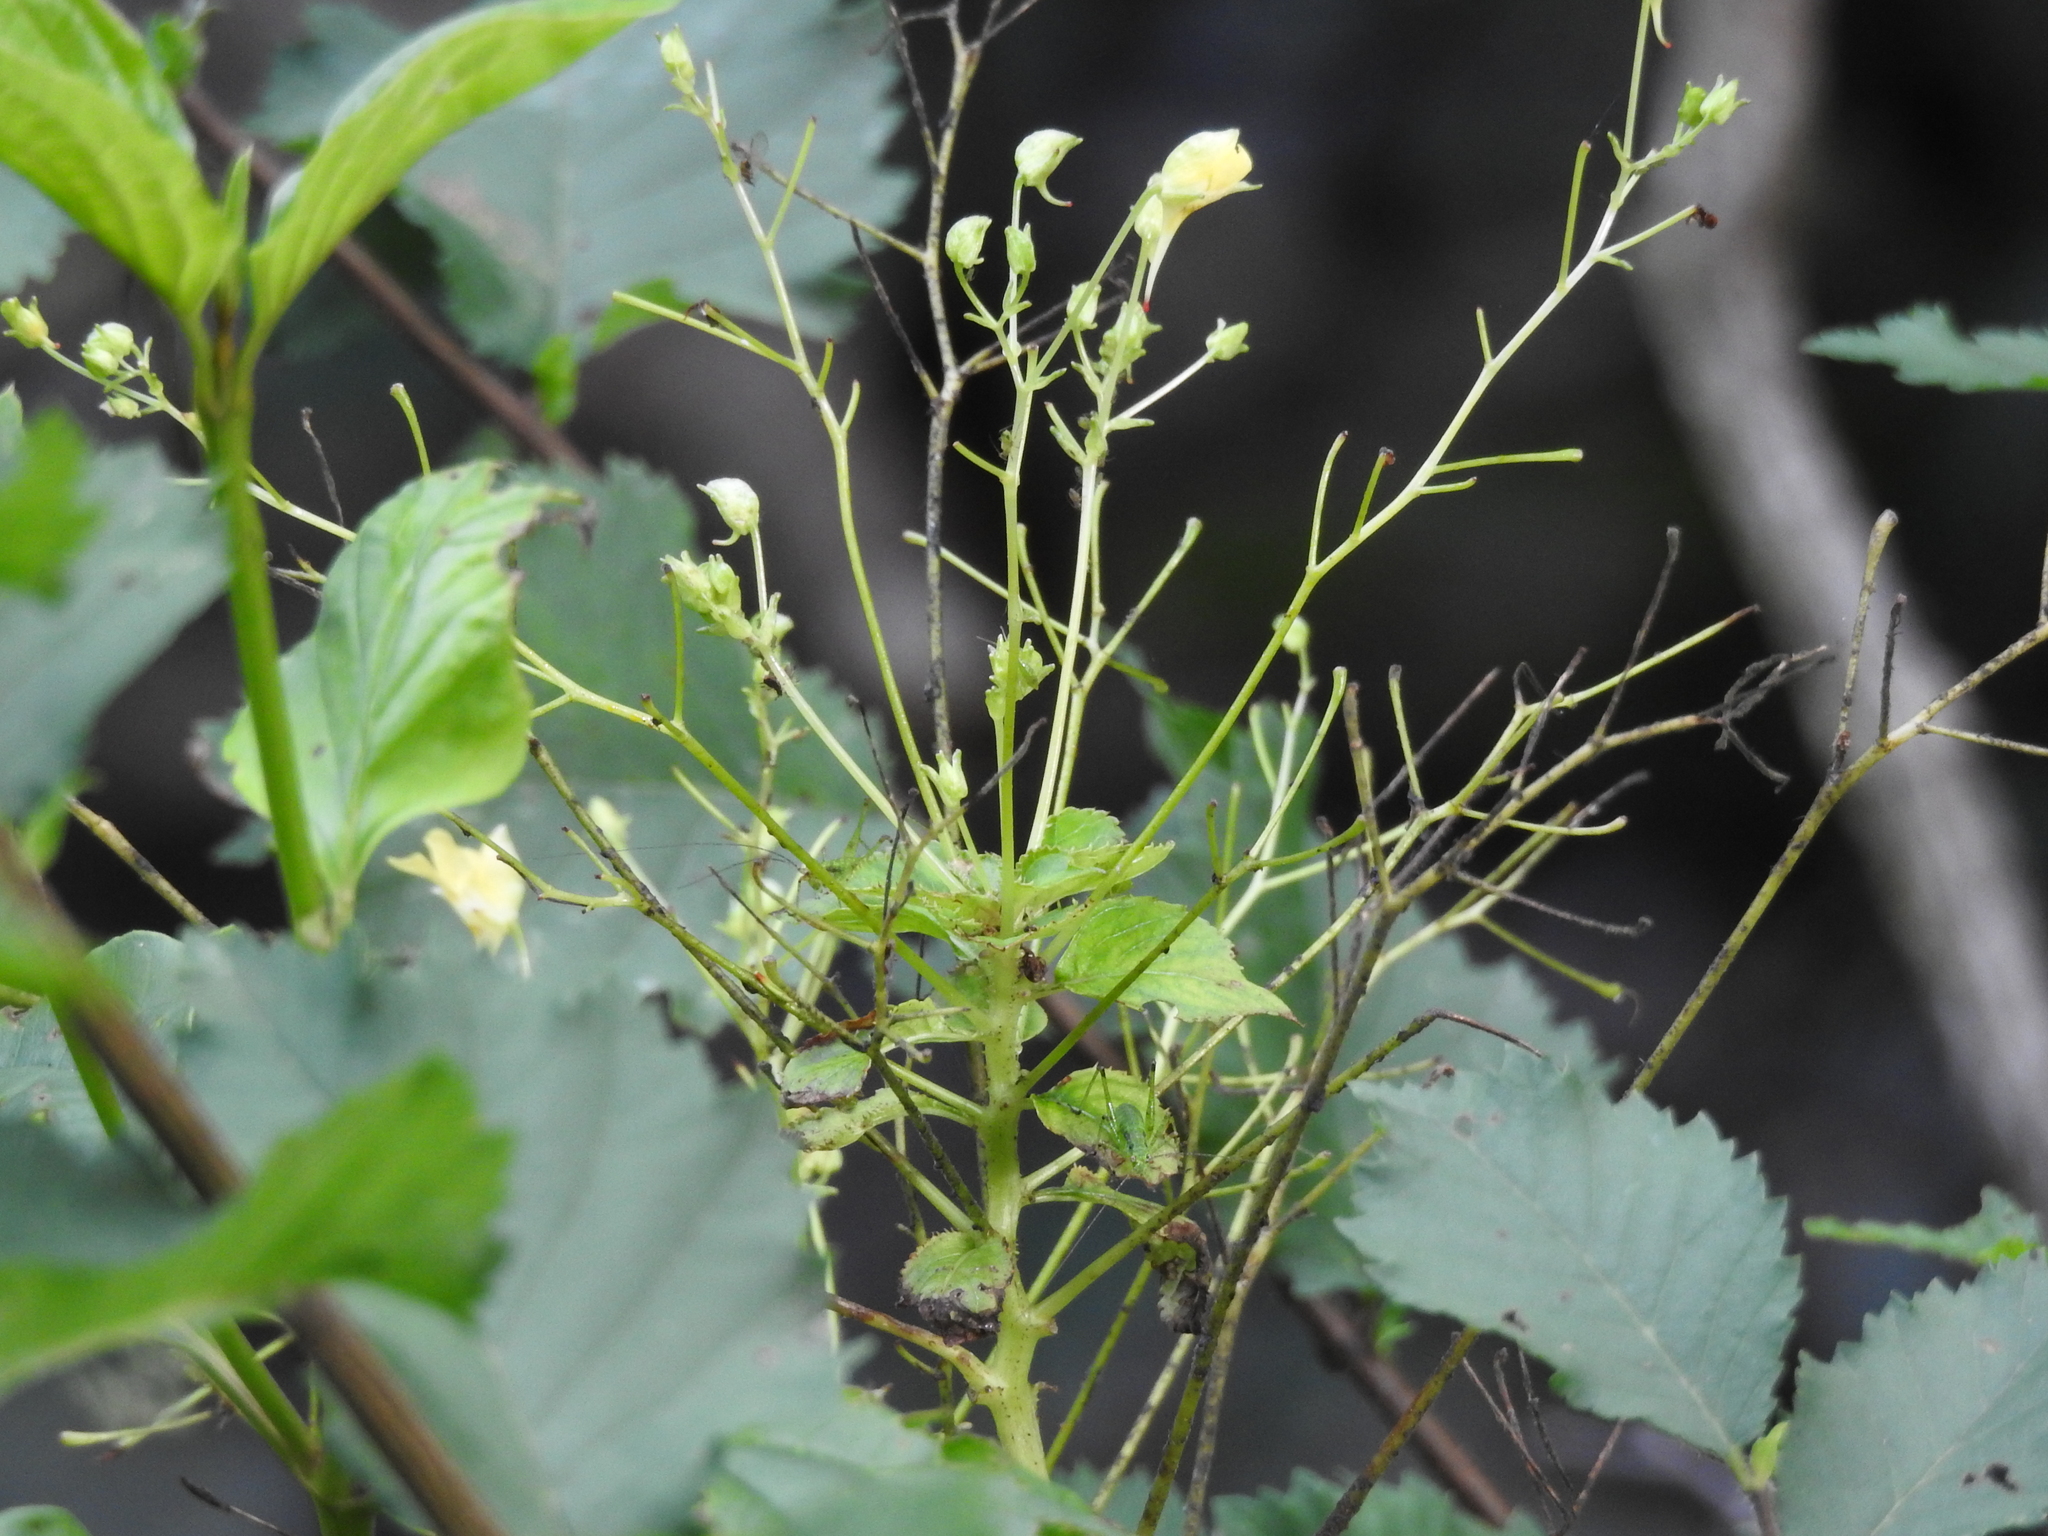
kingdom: Plantae
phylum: Tracheophyta
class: Magnoliopsida
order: Ericales
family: Balsaminaceae
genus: Impatiens
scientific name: Impatiens parviflora
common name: Small balsam
